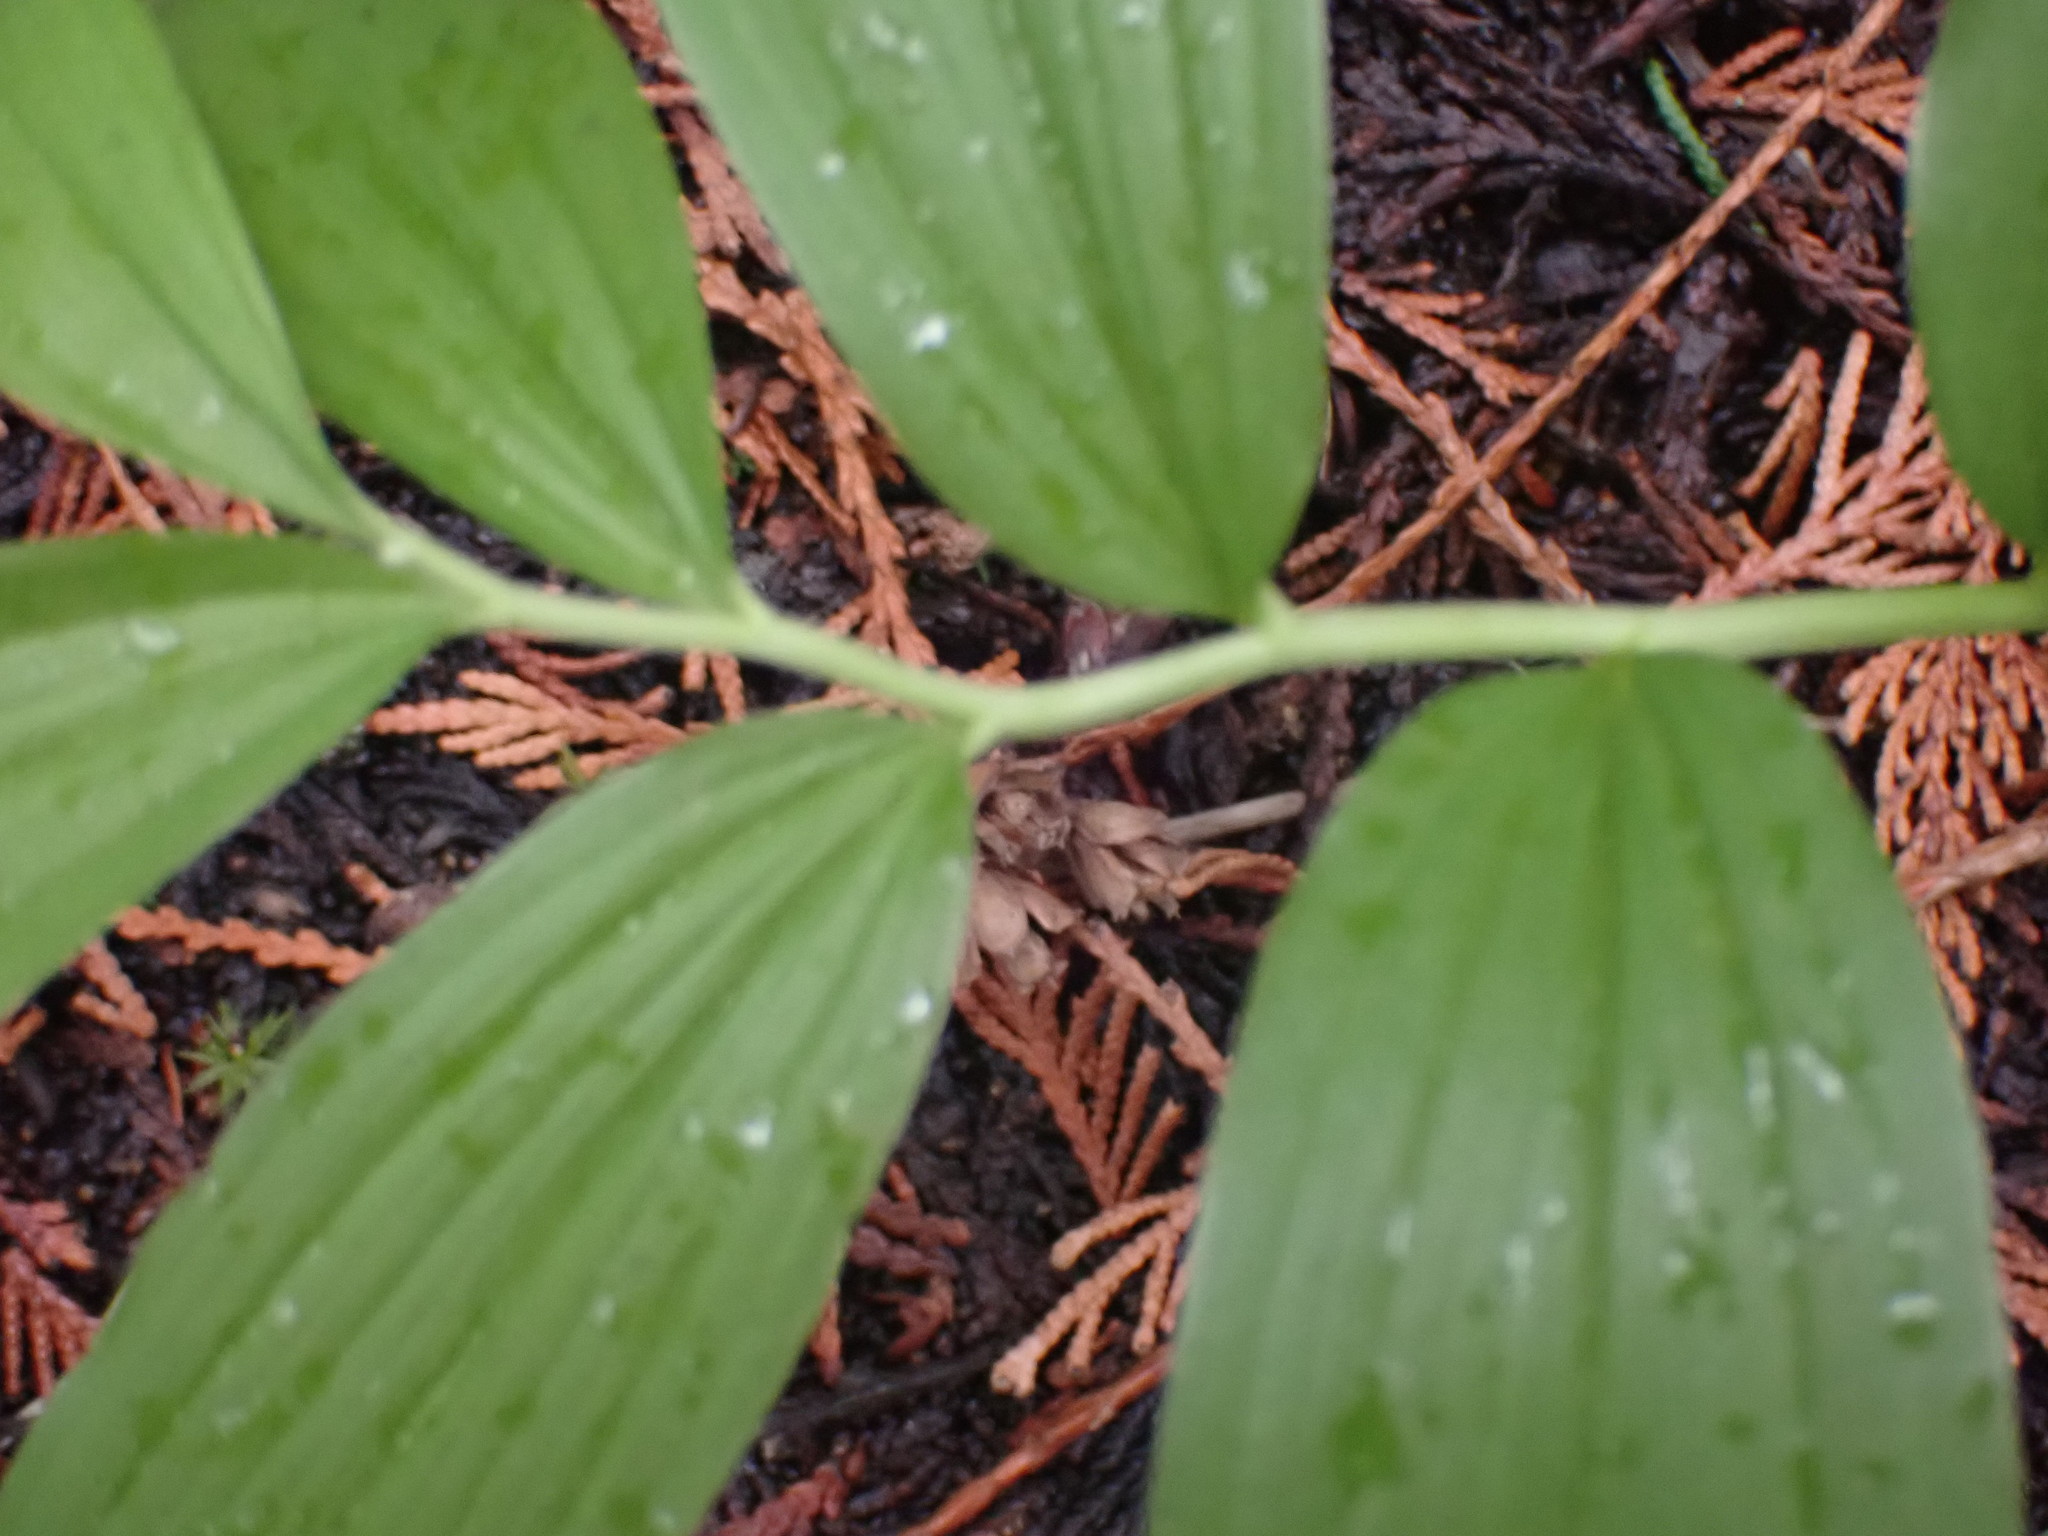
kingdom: Plantae
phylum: Tracheophyta
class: Liliopsida
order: Asparagales
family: Asparagaceae
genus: Maianthemum
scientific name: Maianthemum racemosum
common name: False spikenard
